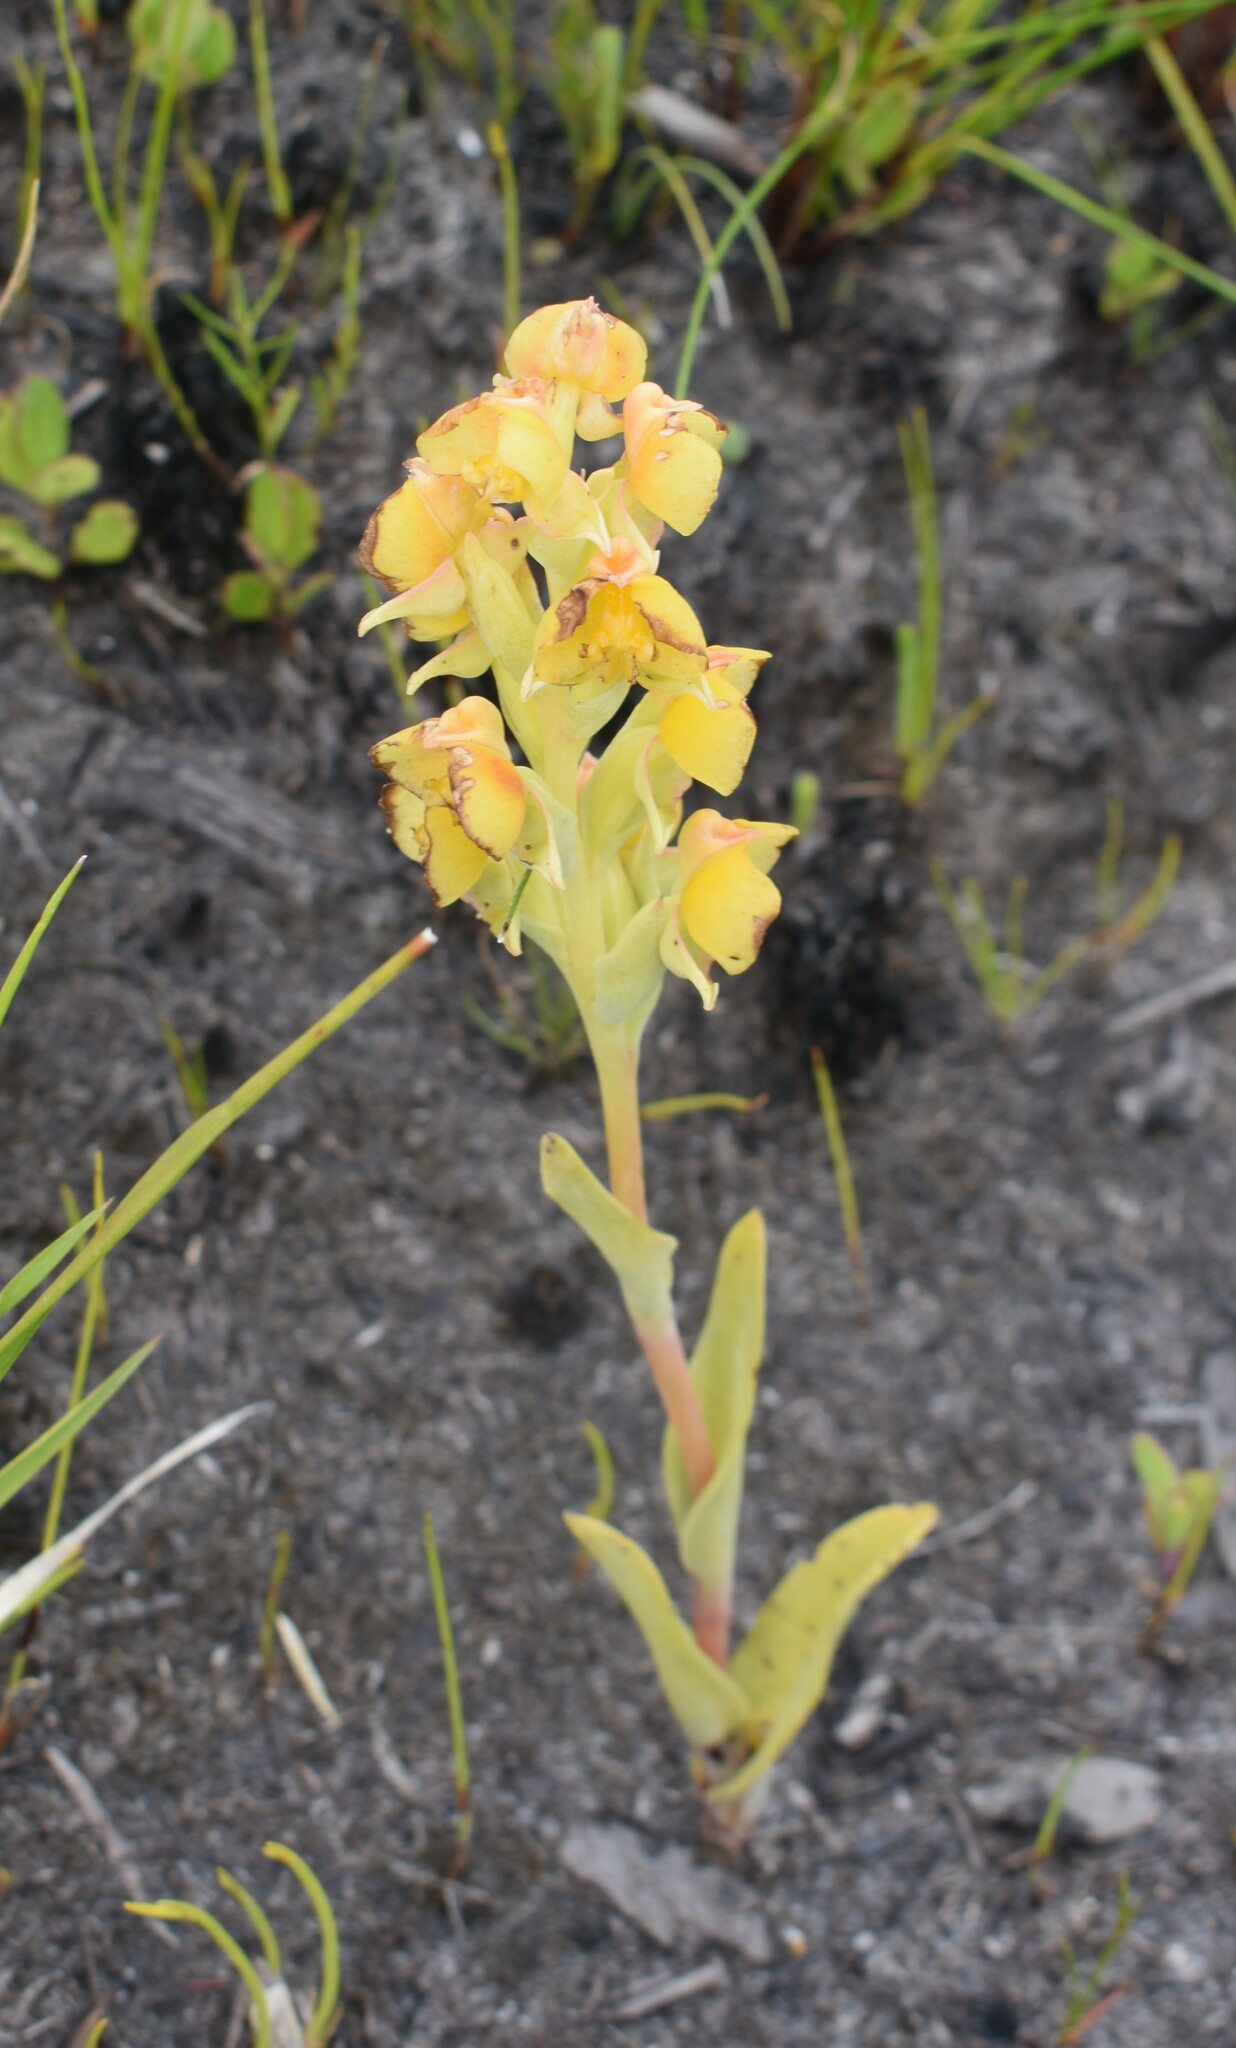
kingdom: Plantae
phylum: Tracheophyta
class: Liliopsida
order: Asparagales
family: Orchidaceae
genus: Pterygodium
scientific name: Pterygodium acutifolium
